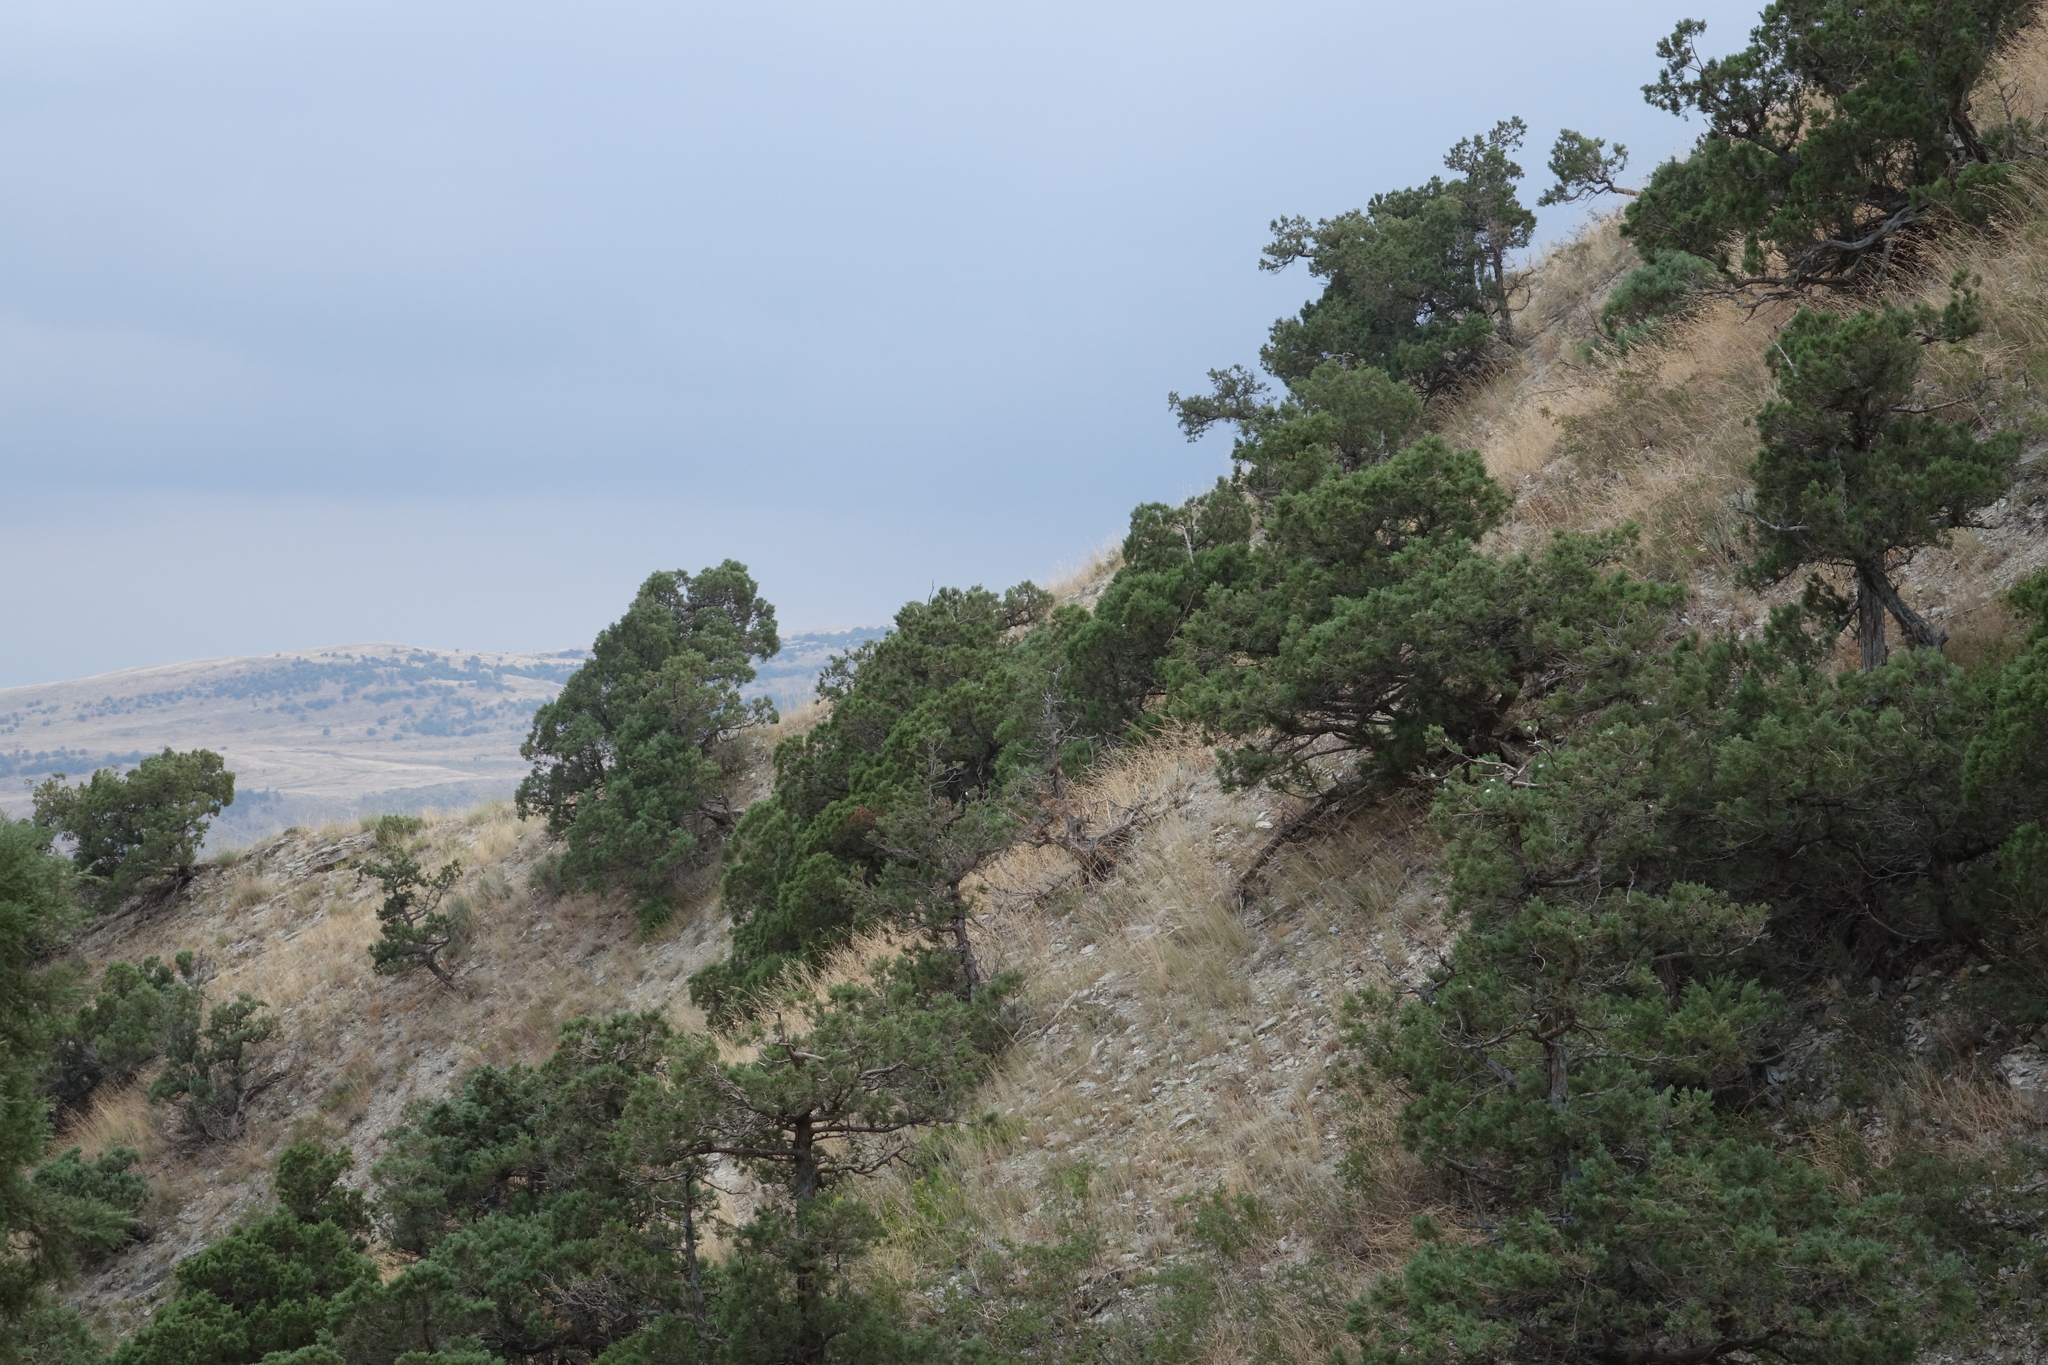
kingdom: Plantae
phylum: Tracheophyta
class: Pinopsida
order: Pinales
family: Cupressaceae
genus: Juniperus
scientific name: Juniperus excelsa
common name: Crimean juniper
